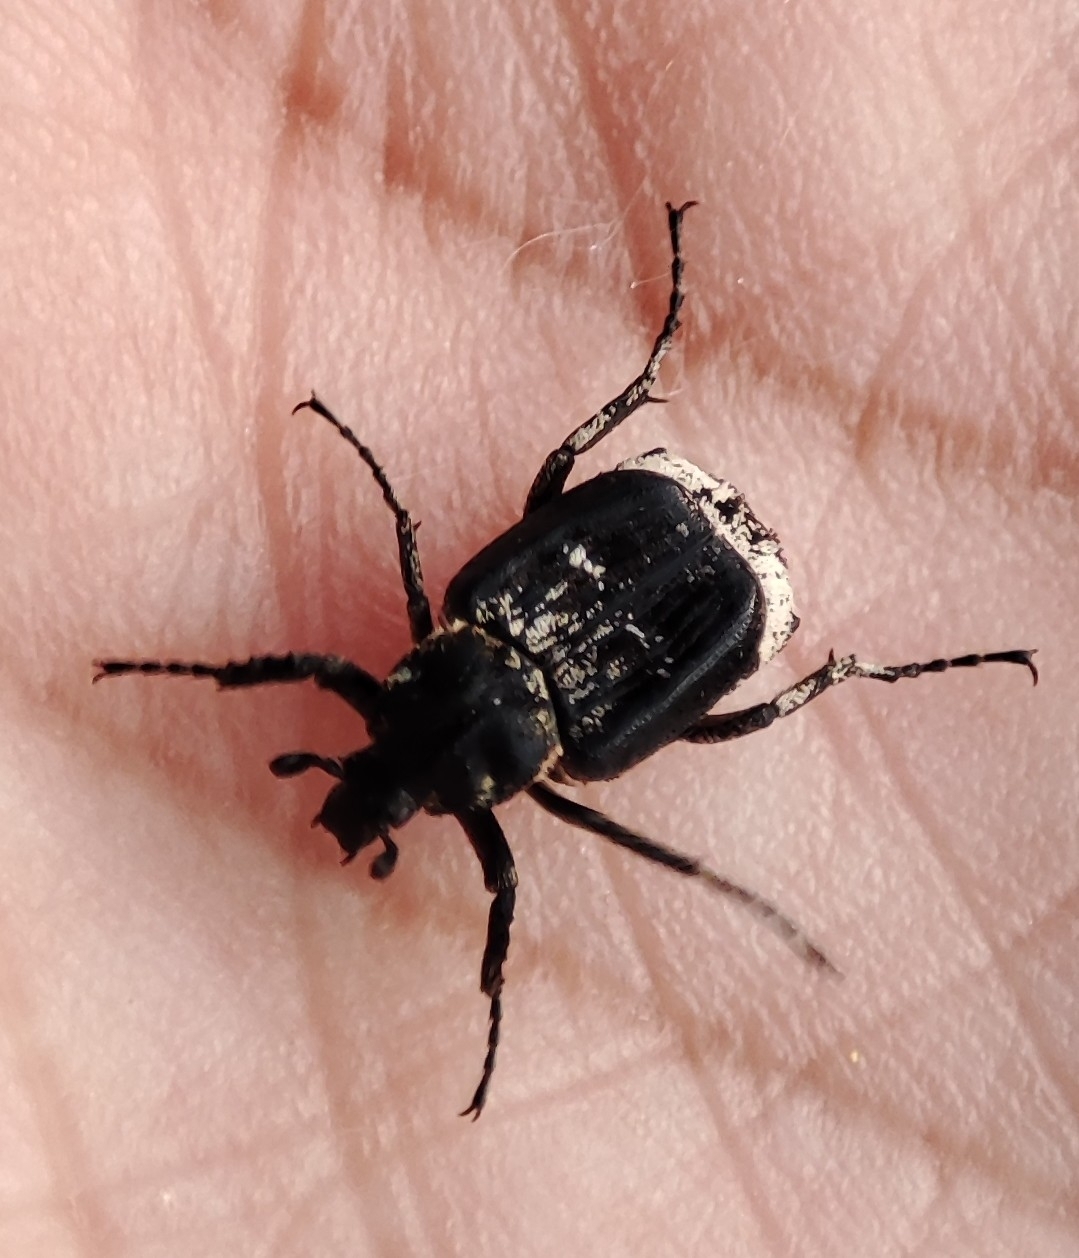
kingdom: Animalia
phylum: Arthropoda
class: Insecta
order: Coleoptera
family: Scarabaeidae
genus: Valgus
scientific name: Valgus hemipterus
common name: Bug flower chafer
